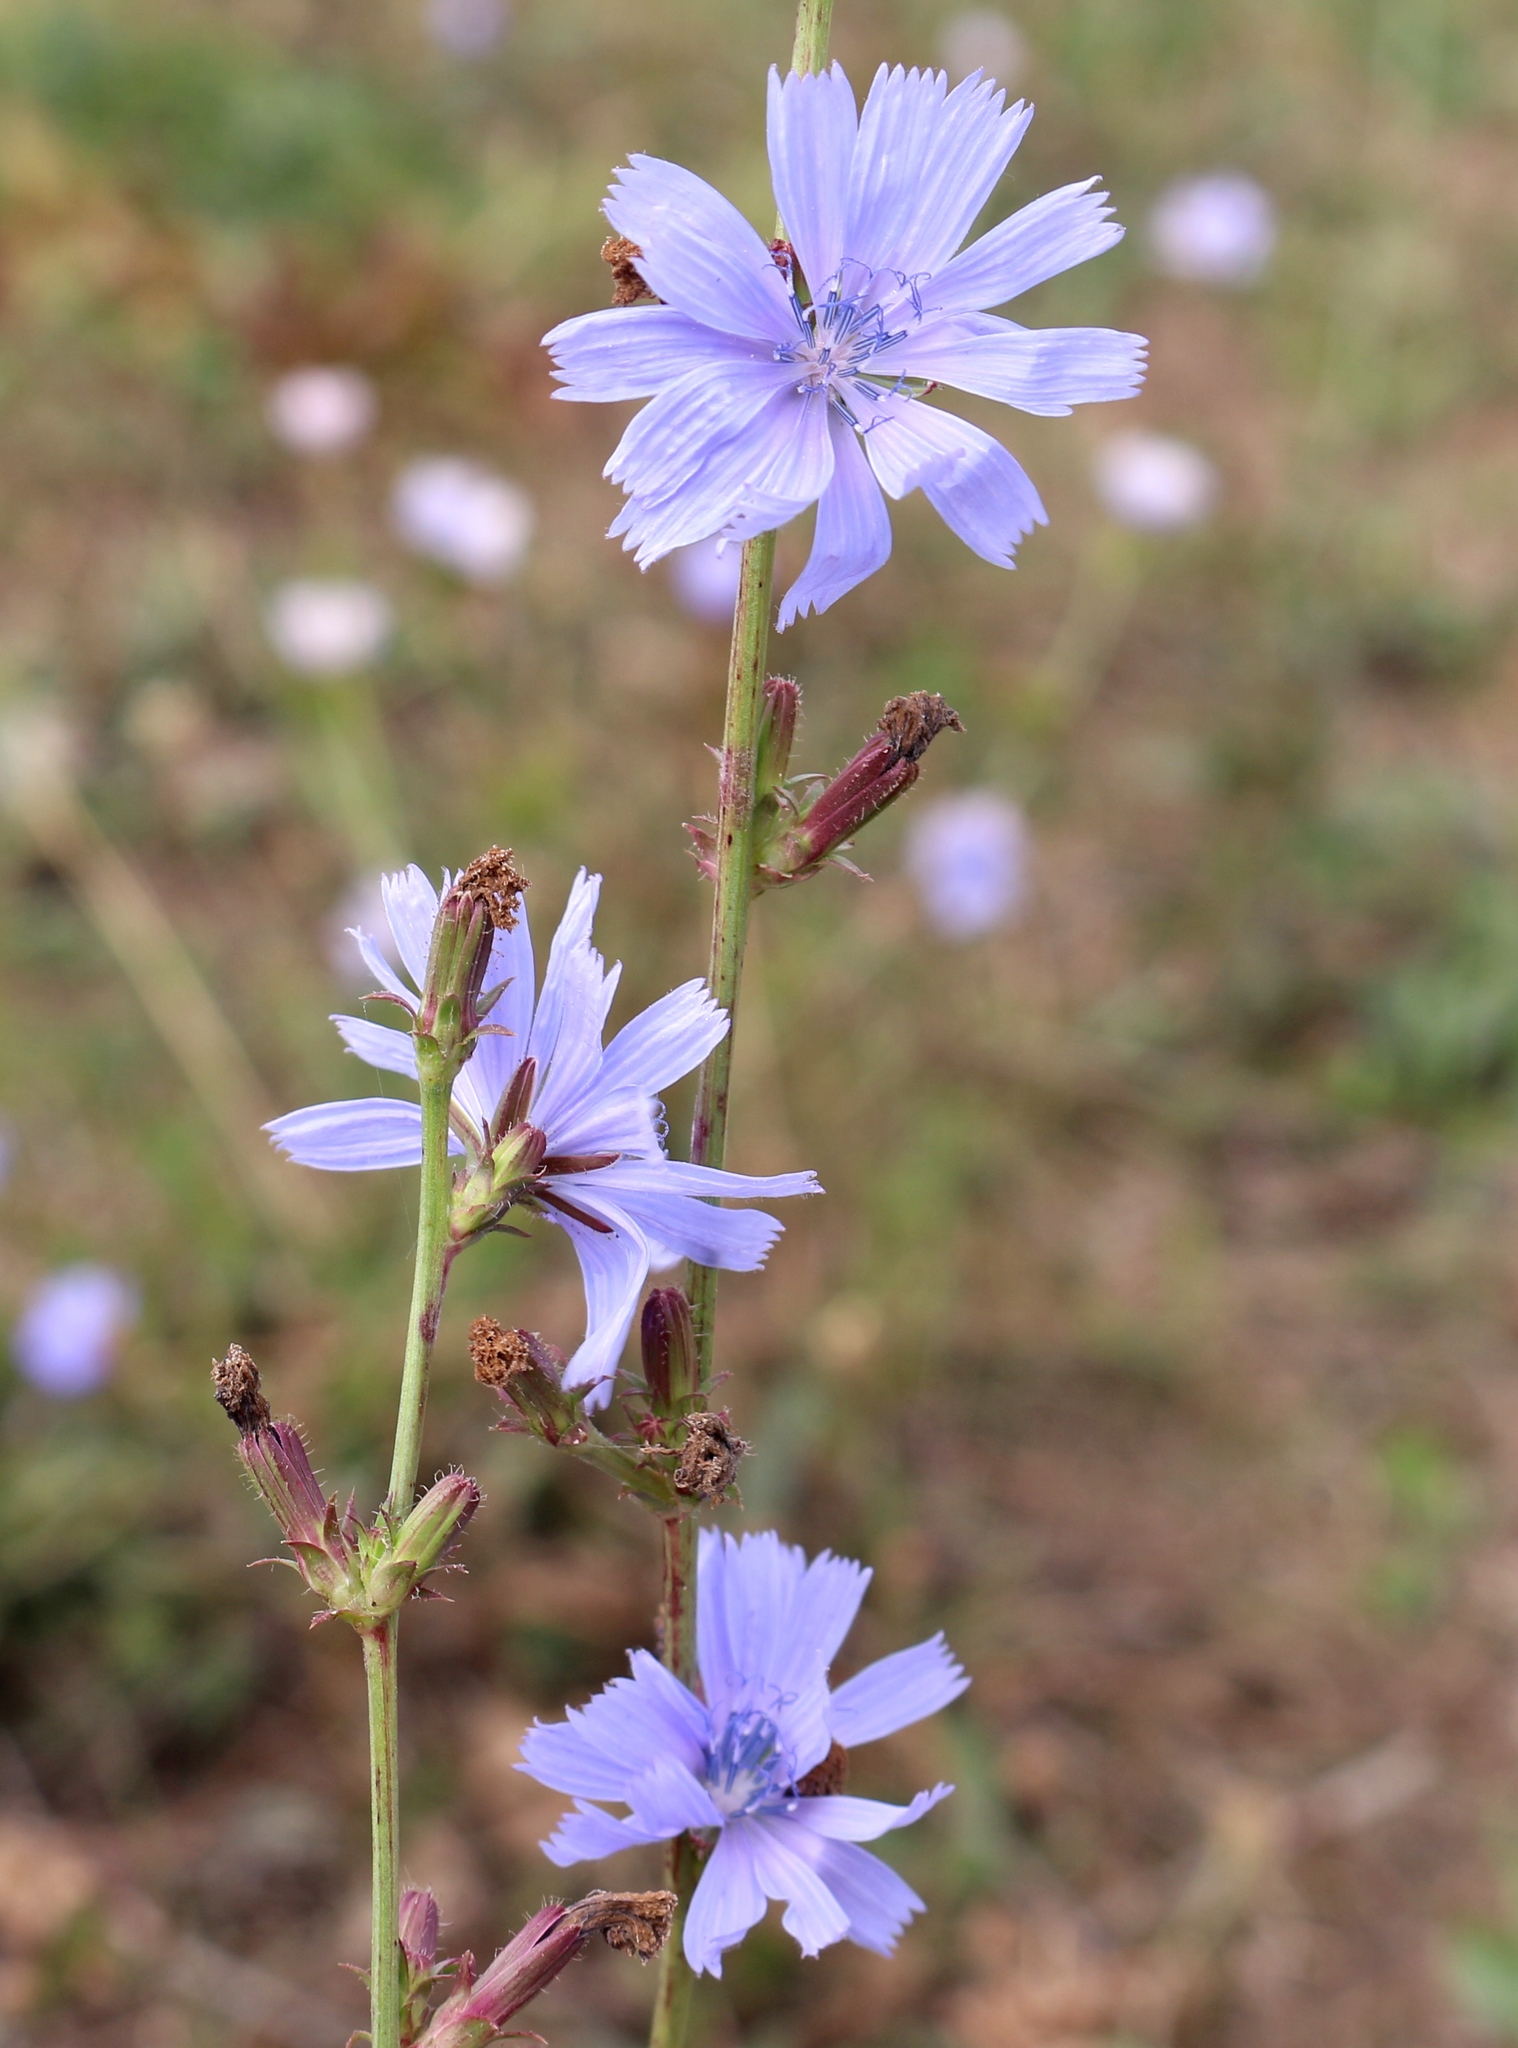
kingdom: Plantae
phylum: Tracheophyta
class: Magnoliopsida
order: Asterales
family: Asteraceae
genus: Cichorium
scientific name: Cichorium intybus
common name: Chicory
